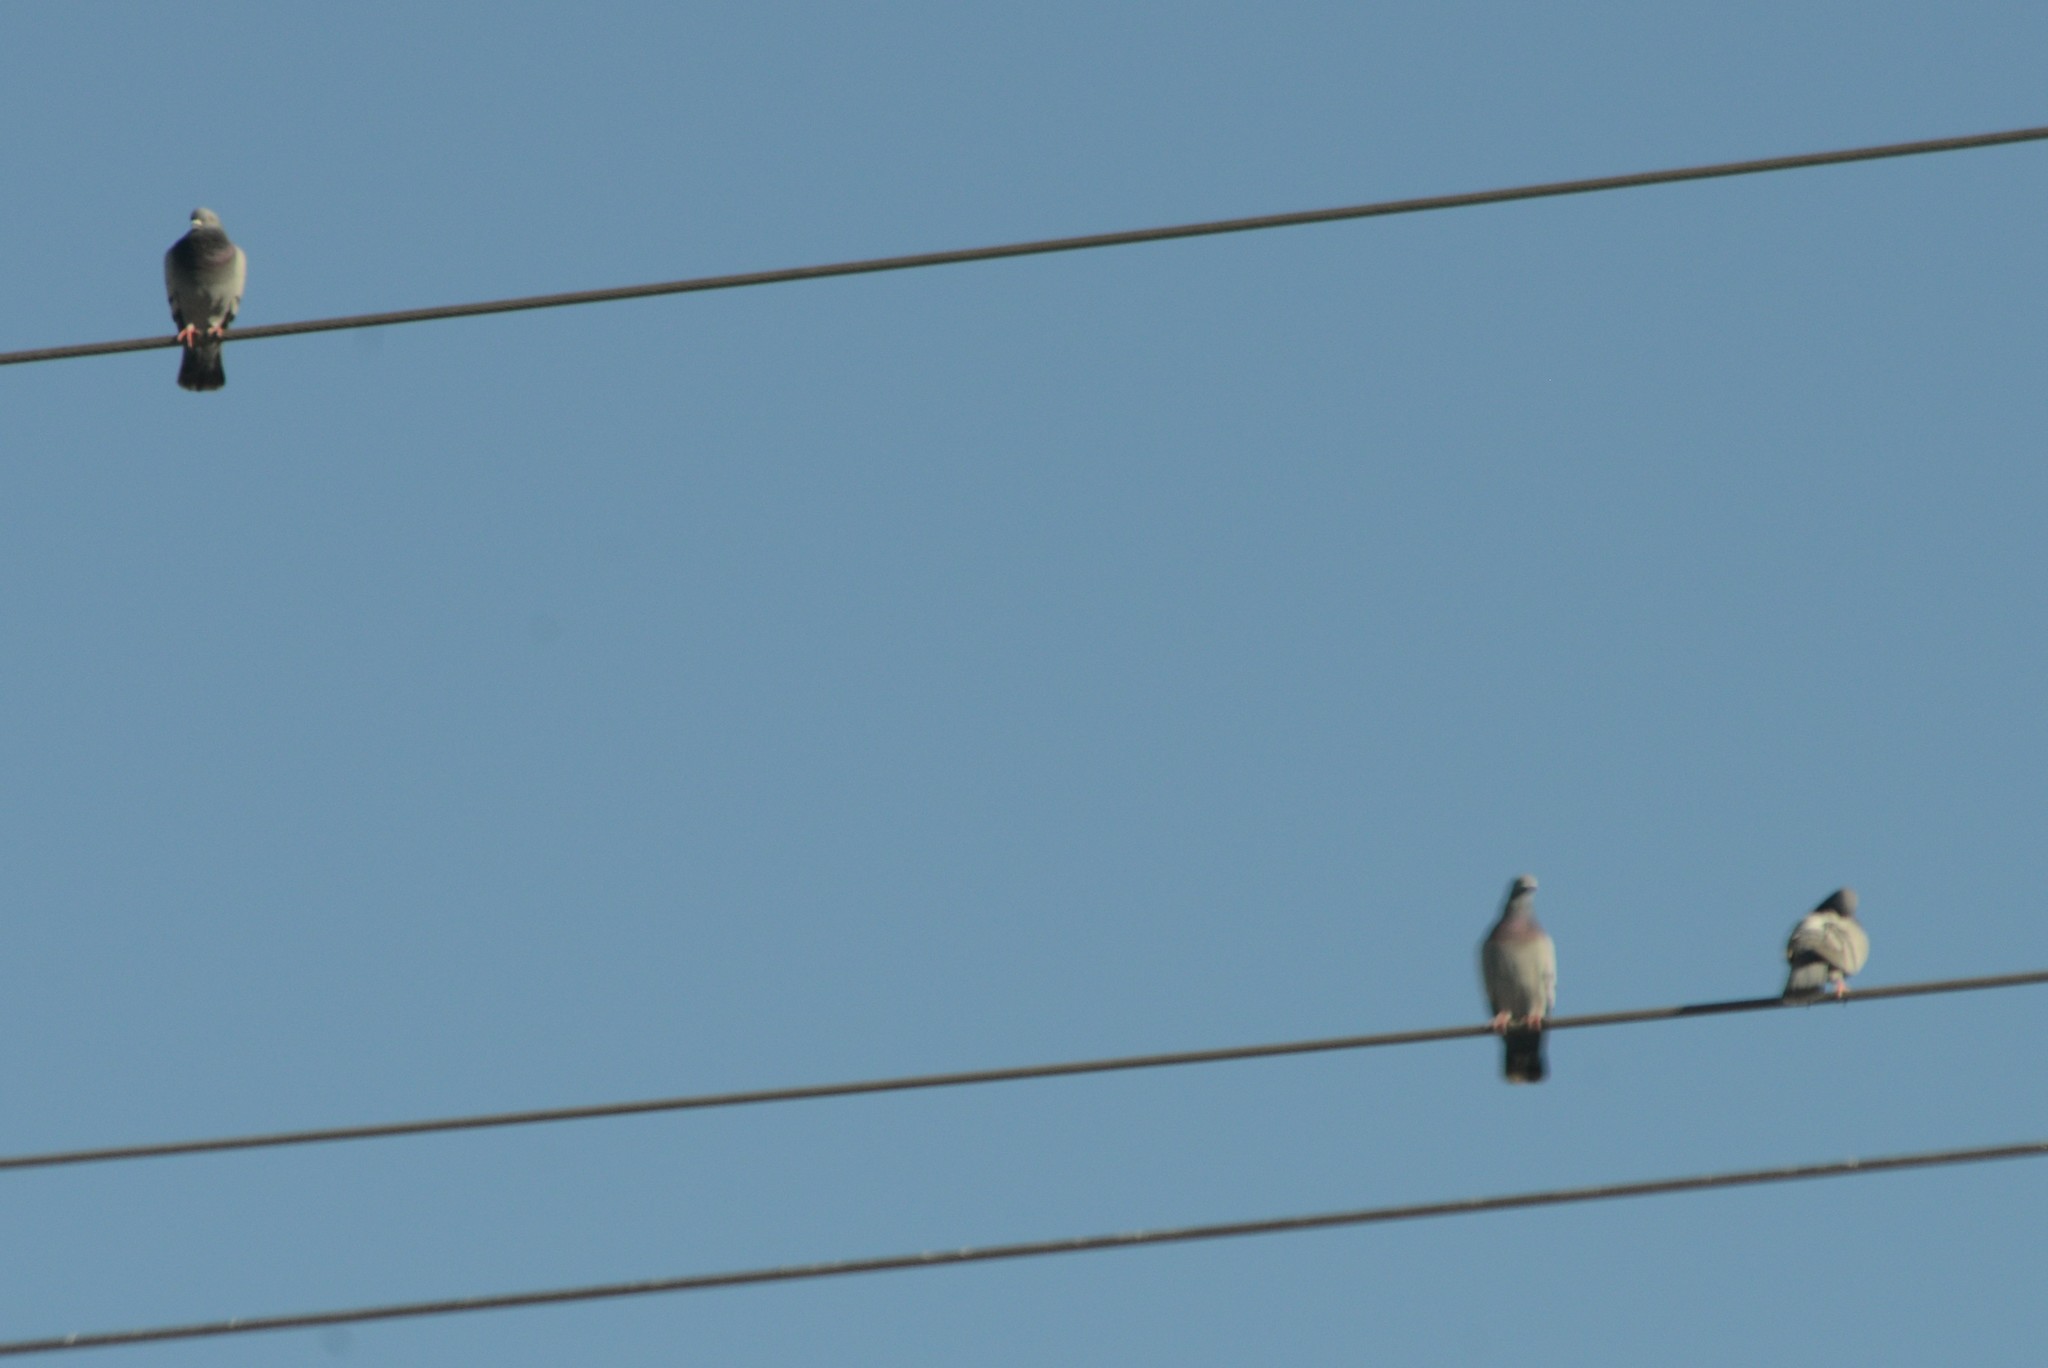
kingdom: Animalia
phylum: Chordata
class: Aves
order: Columbiformes
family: Columbidae
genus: Columba
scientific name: Columba livia
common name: Rock pigeon
